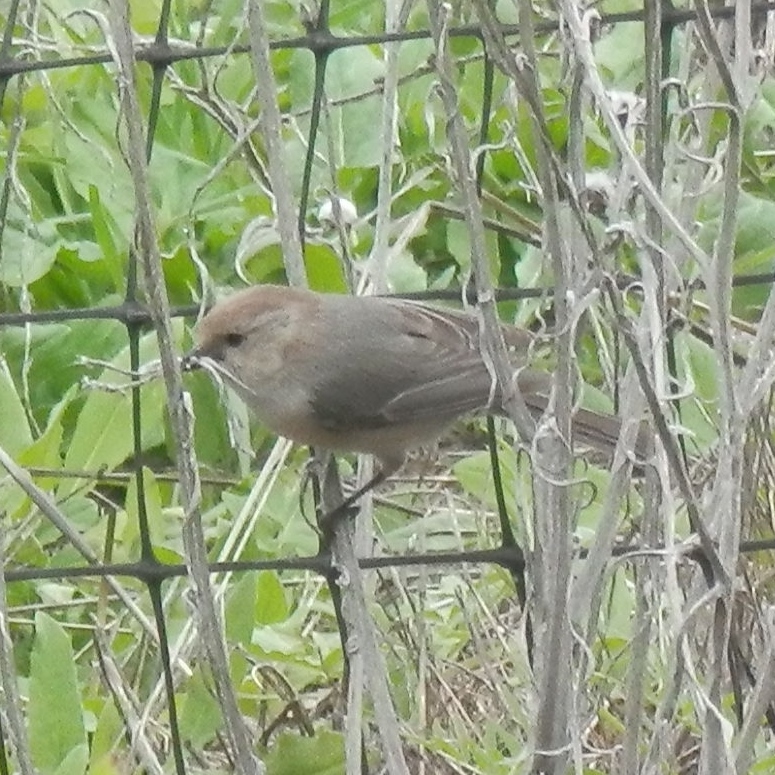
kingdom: Animalia
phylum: Chordata
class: Aves
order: Passeriformes
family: Aegithalidae
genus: Psaltriparus
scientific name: Psaltriparus minimus
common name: American bushtit
